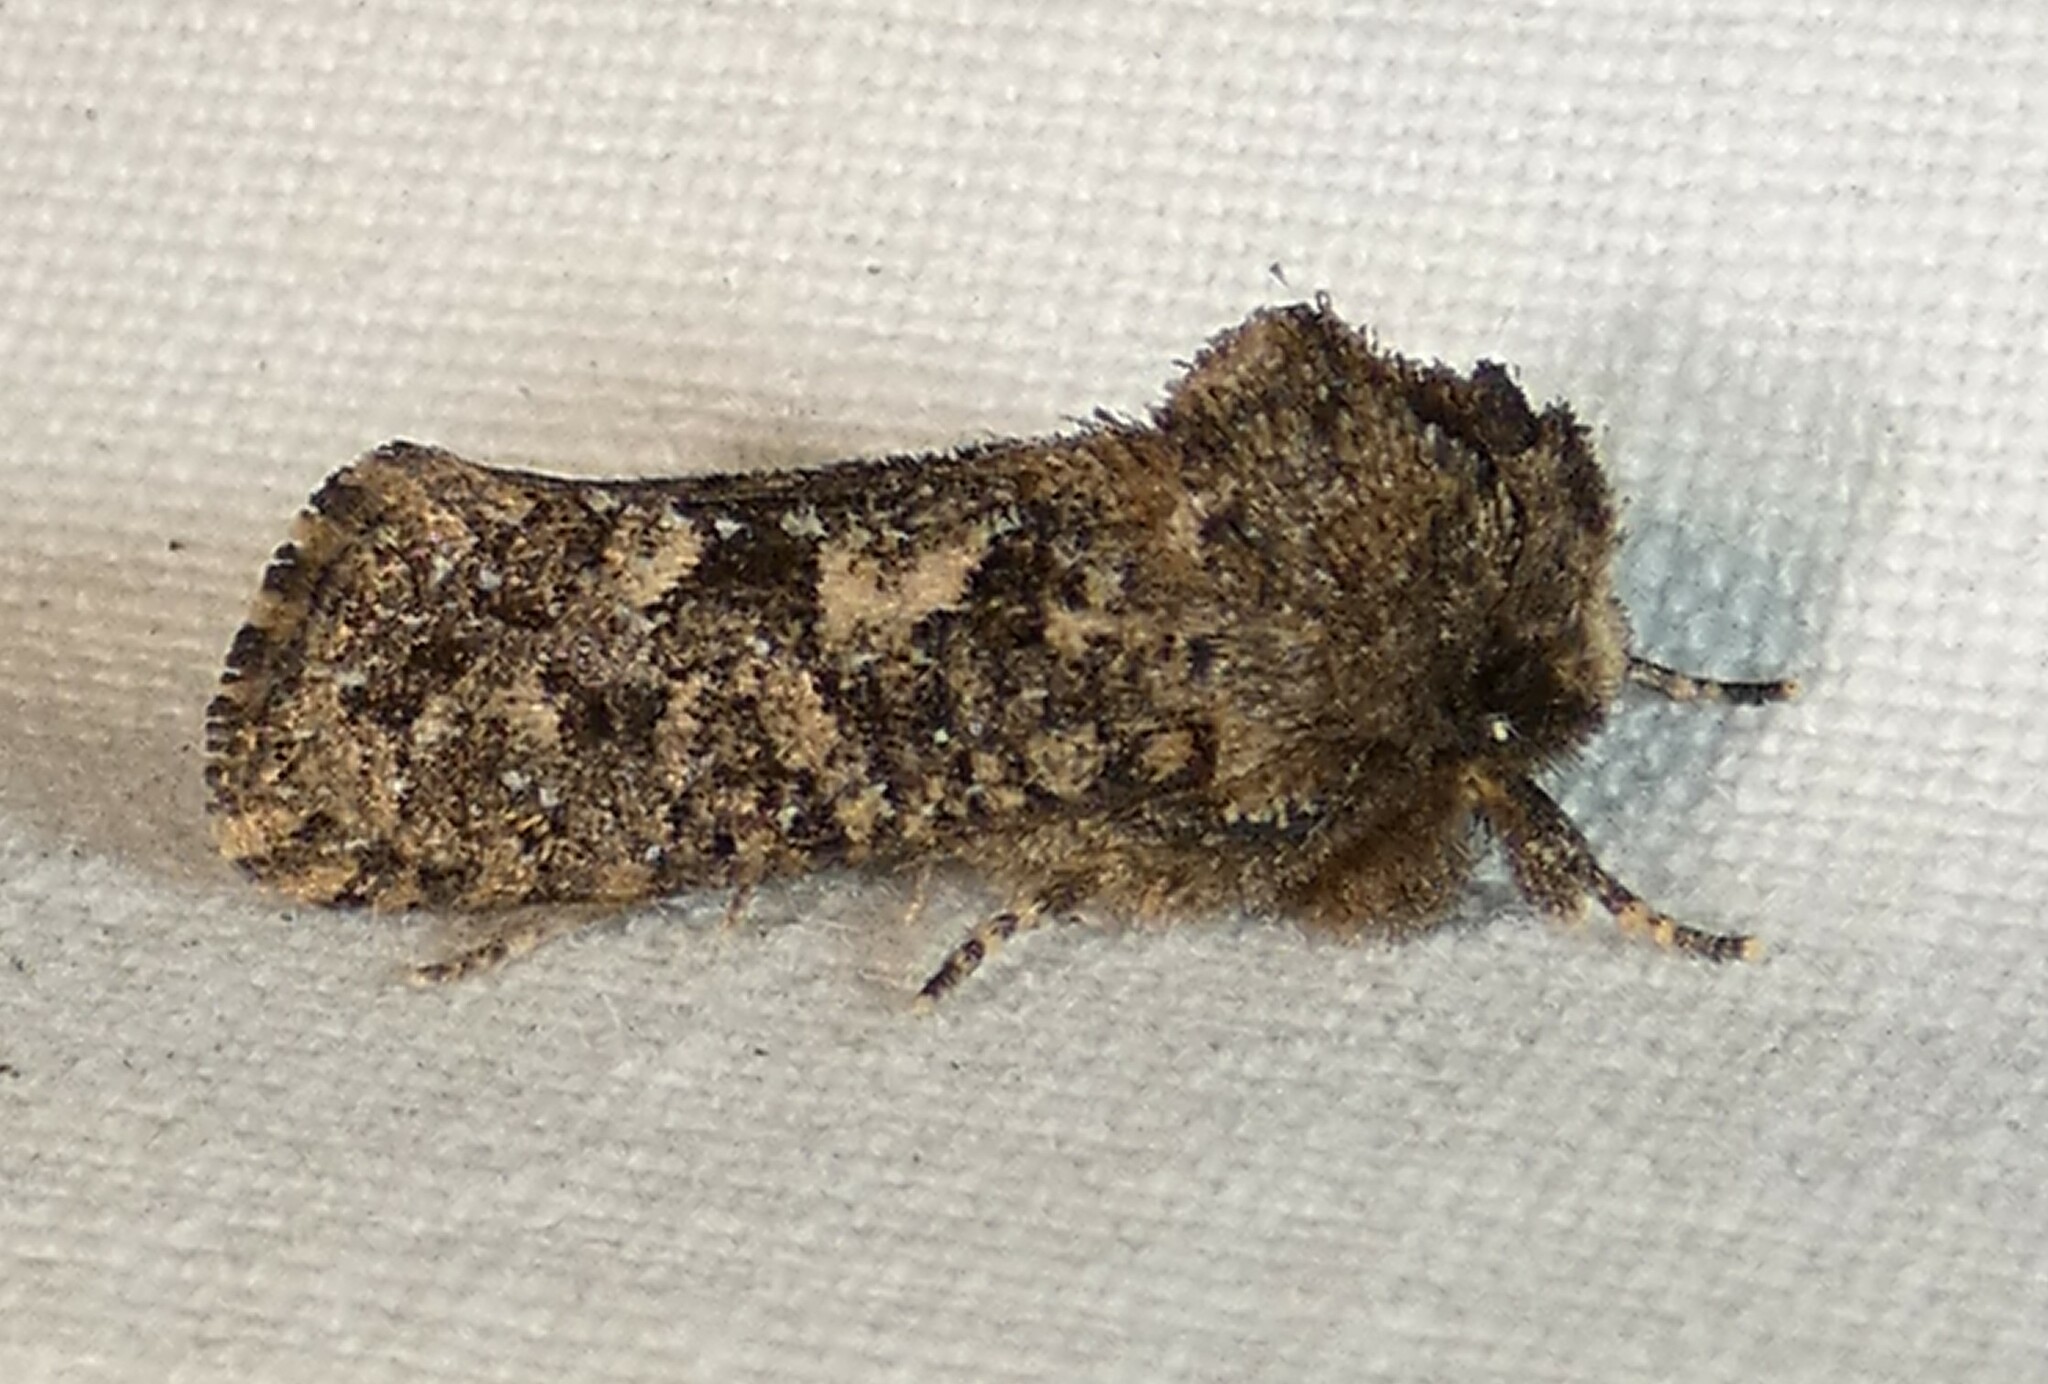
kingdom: Animalia
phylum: Arthropoda
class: Insecta
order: Lepidoptera
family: Tineidae
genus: Acrolophus
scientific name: Acrolophus arcanella
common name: Arcane grass tubeworm moth
